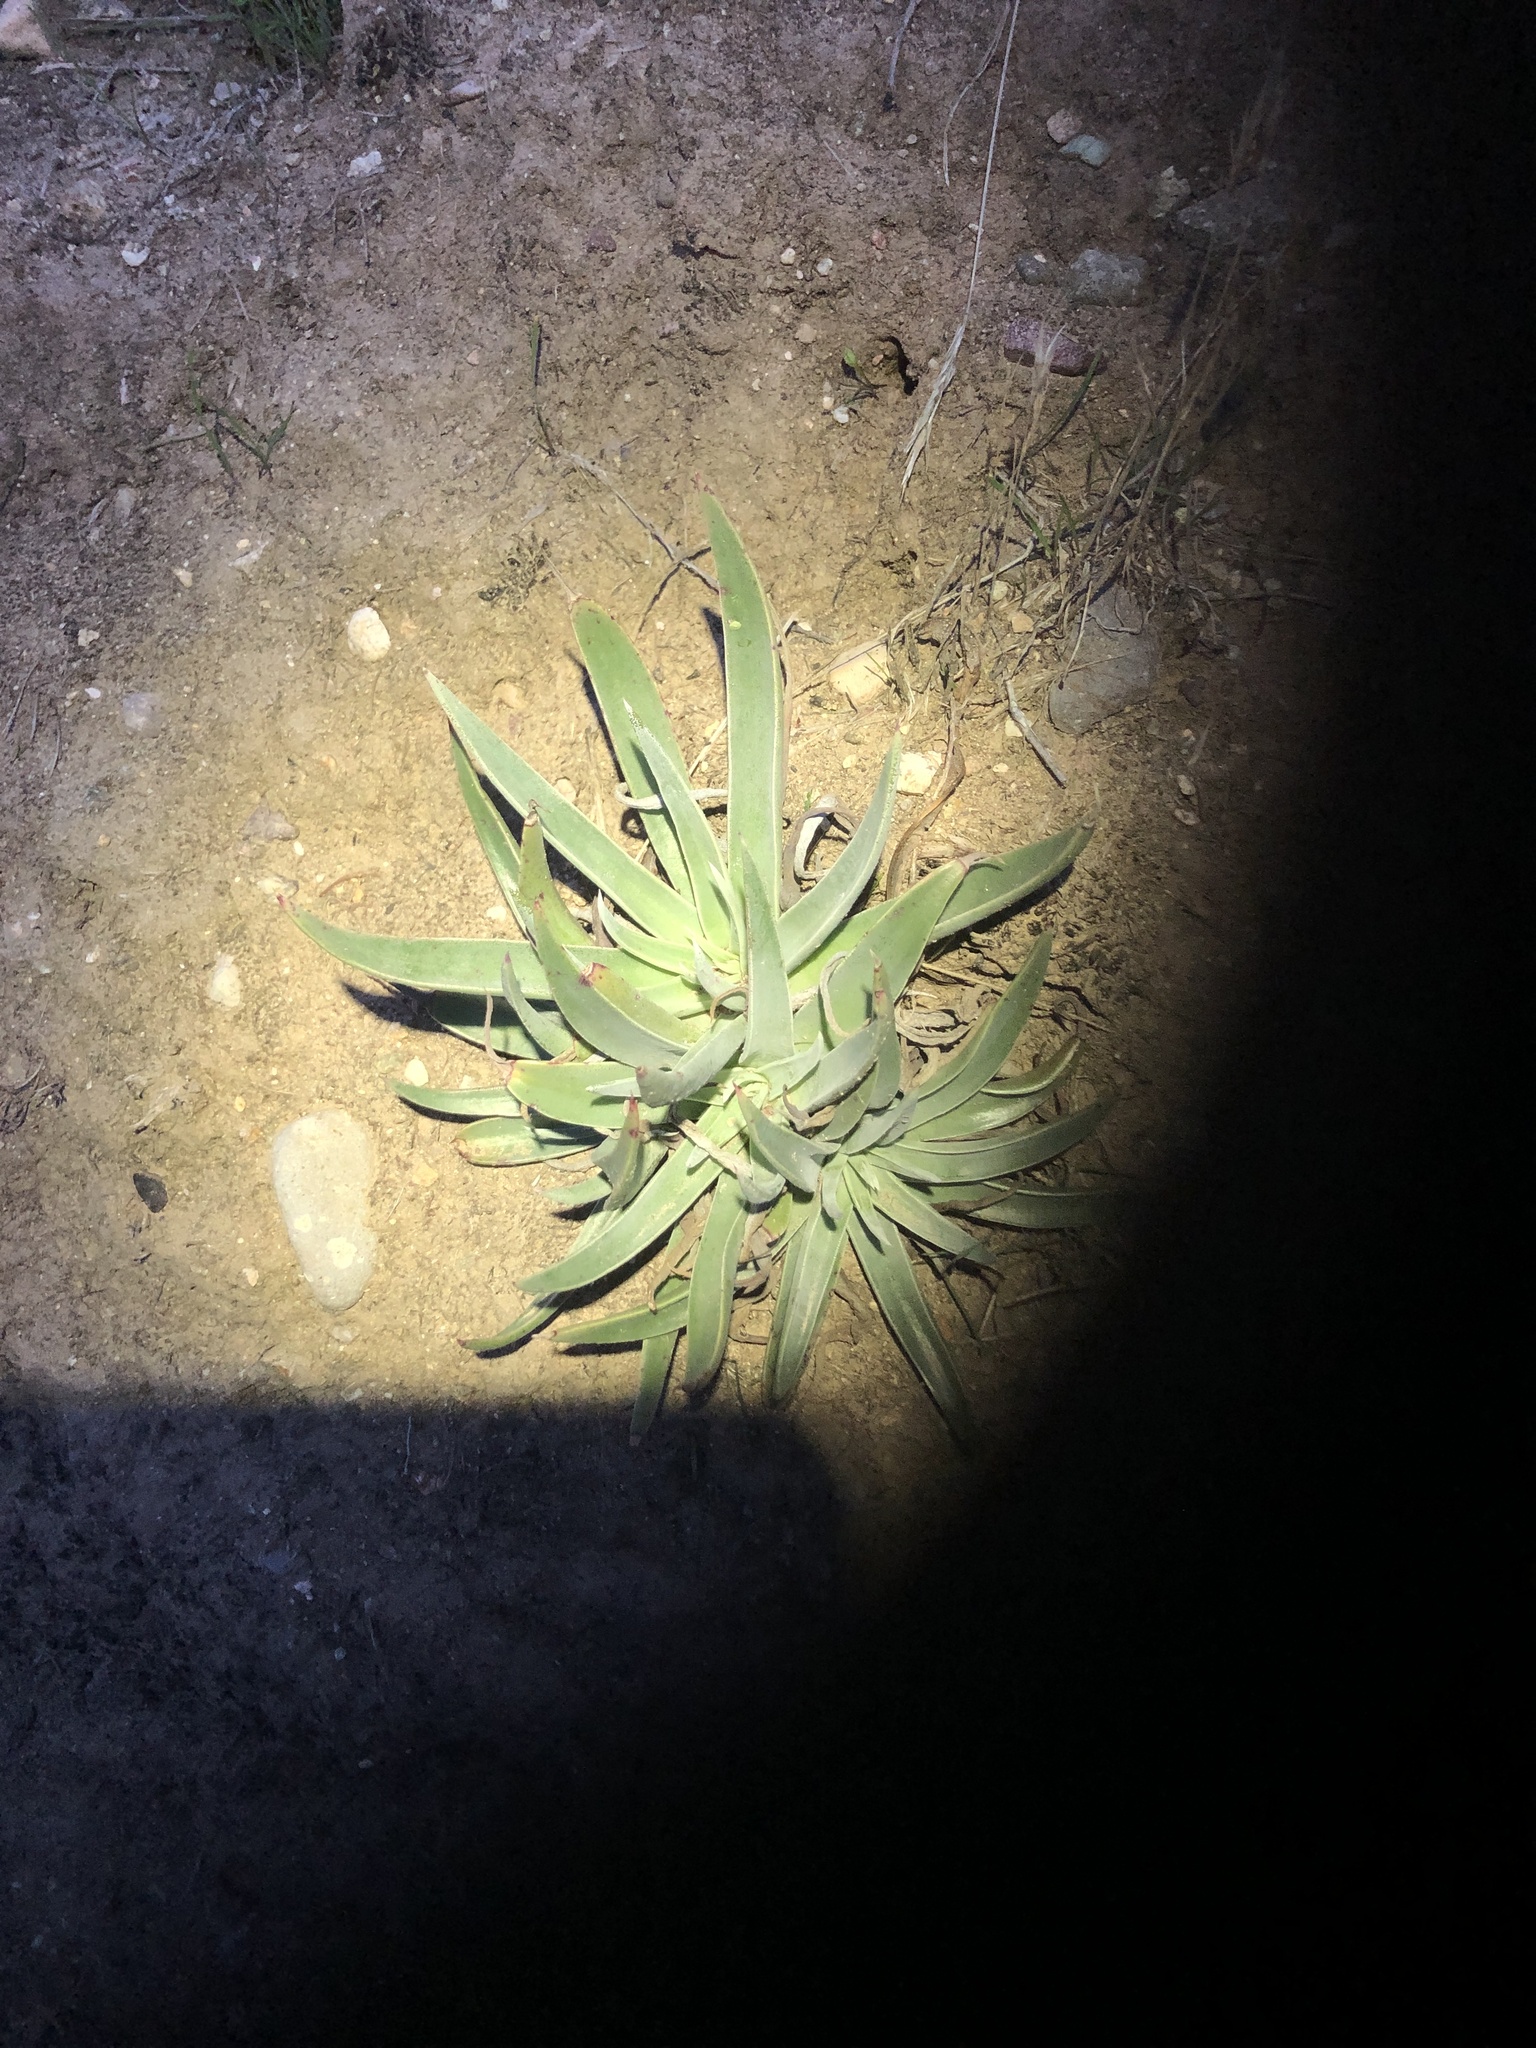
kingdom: Plantae
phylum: Tracheophyta
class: Magnoliopsida
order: Saxifragales
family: Crassulaceae
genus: Dudleya
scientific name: Dudleya lanceolata
